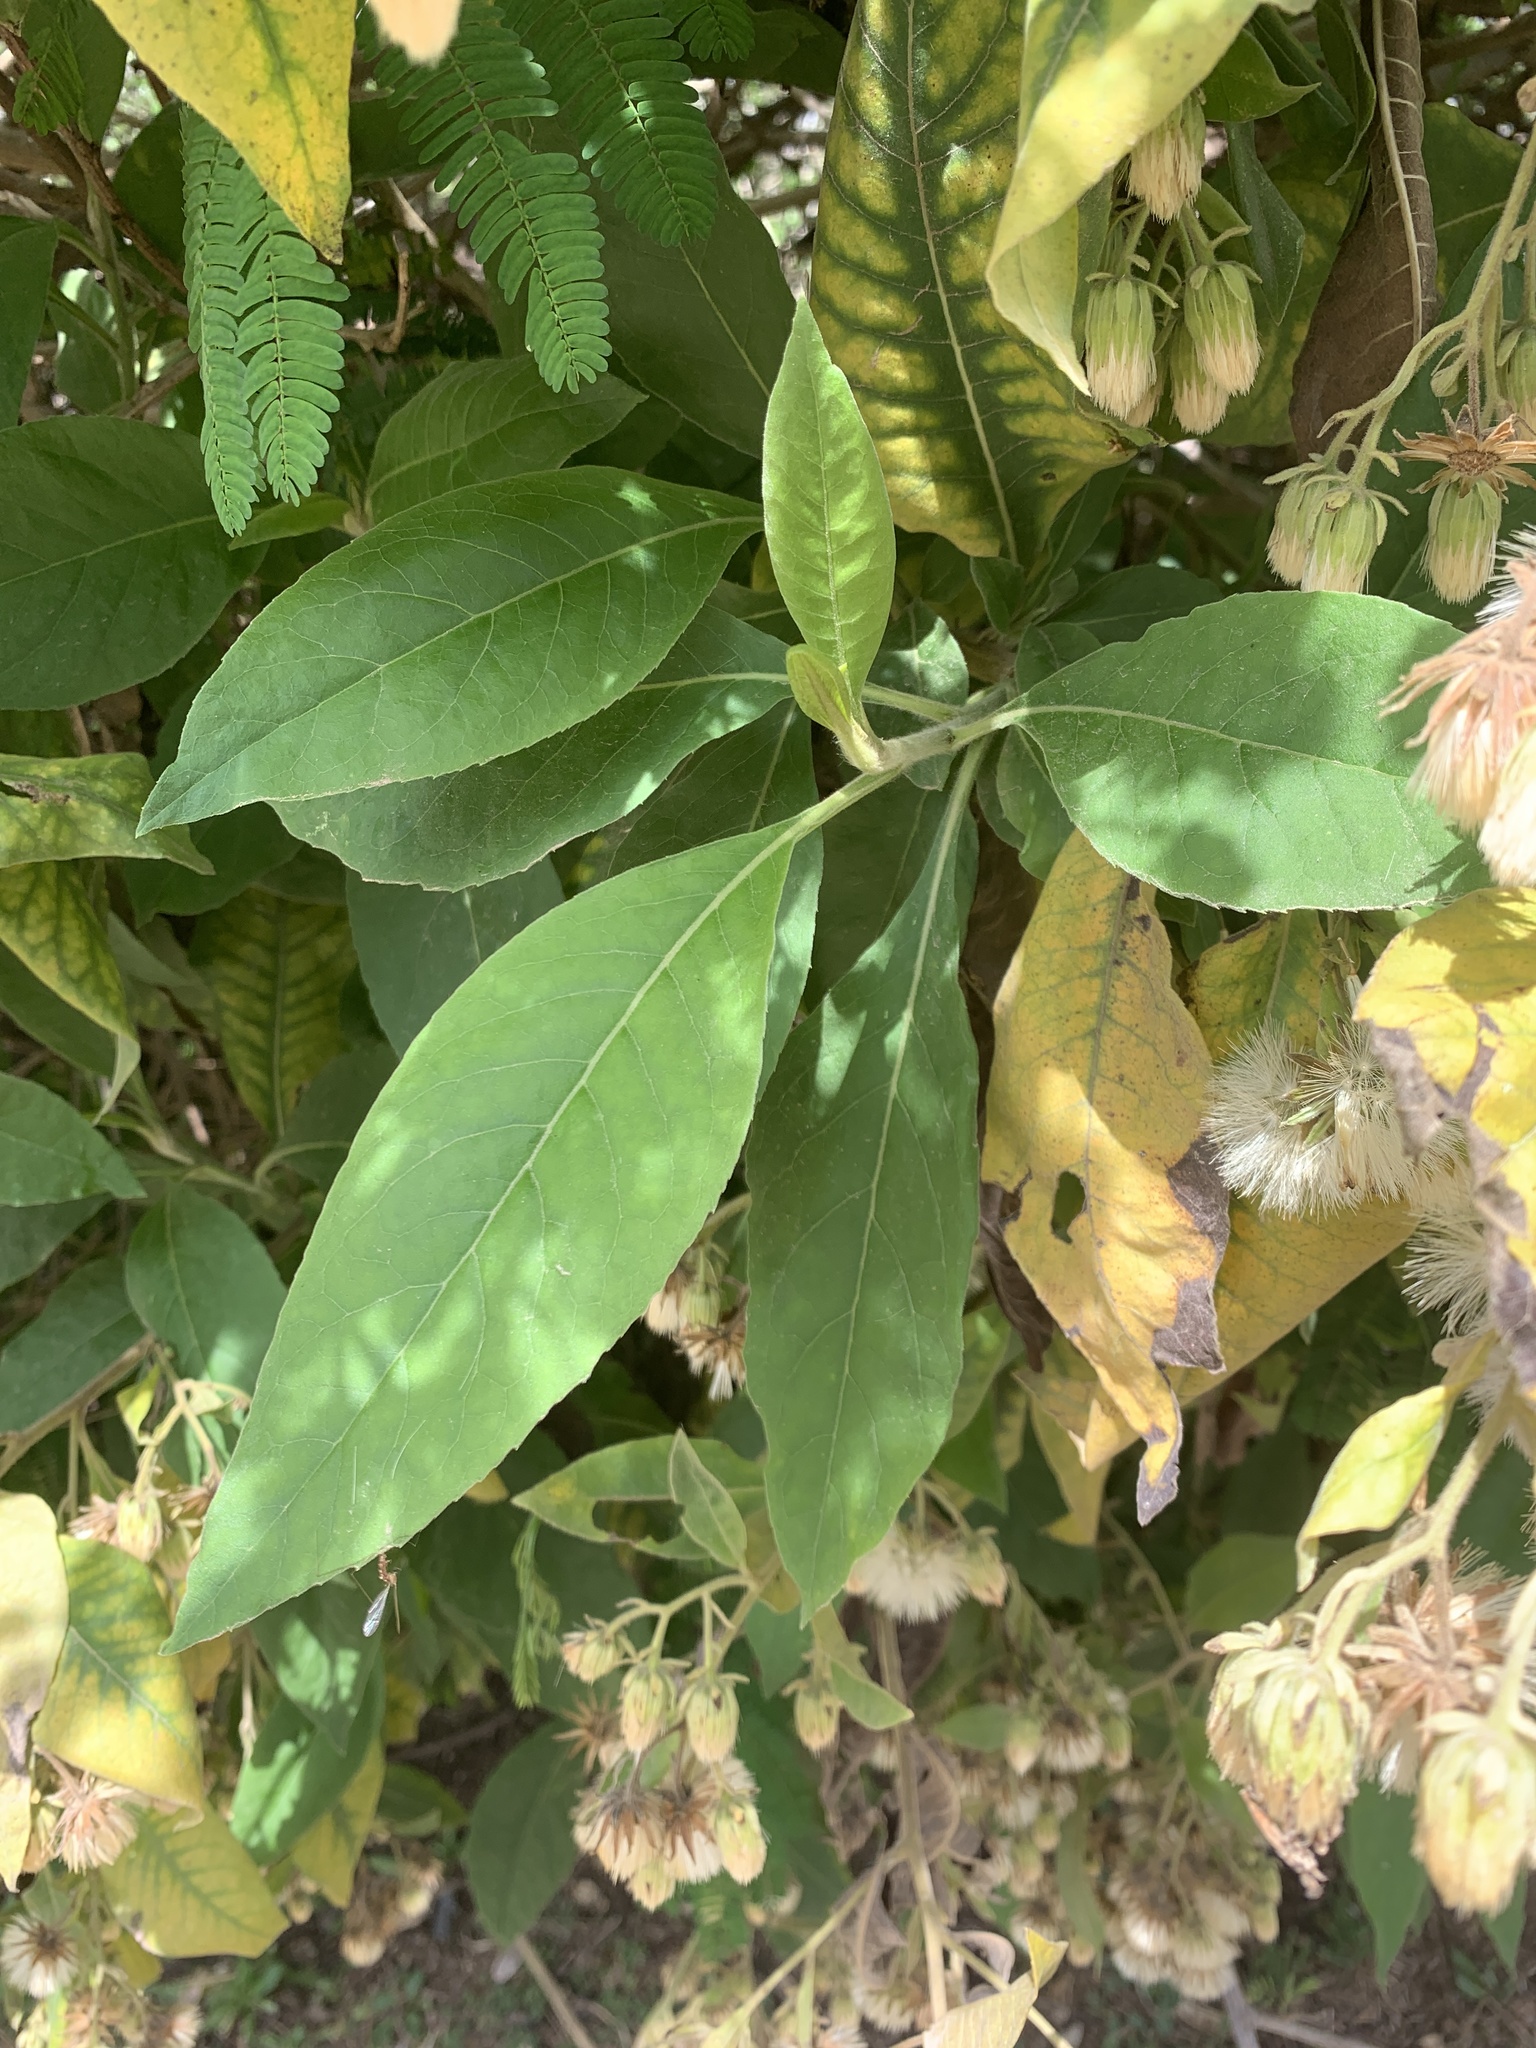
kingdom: Plantae
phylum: Tracheophyta
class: Magnoliopsida
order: Asterales
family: Asteraceae
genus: Trixis
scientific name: Trixis praestans
